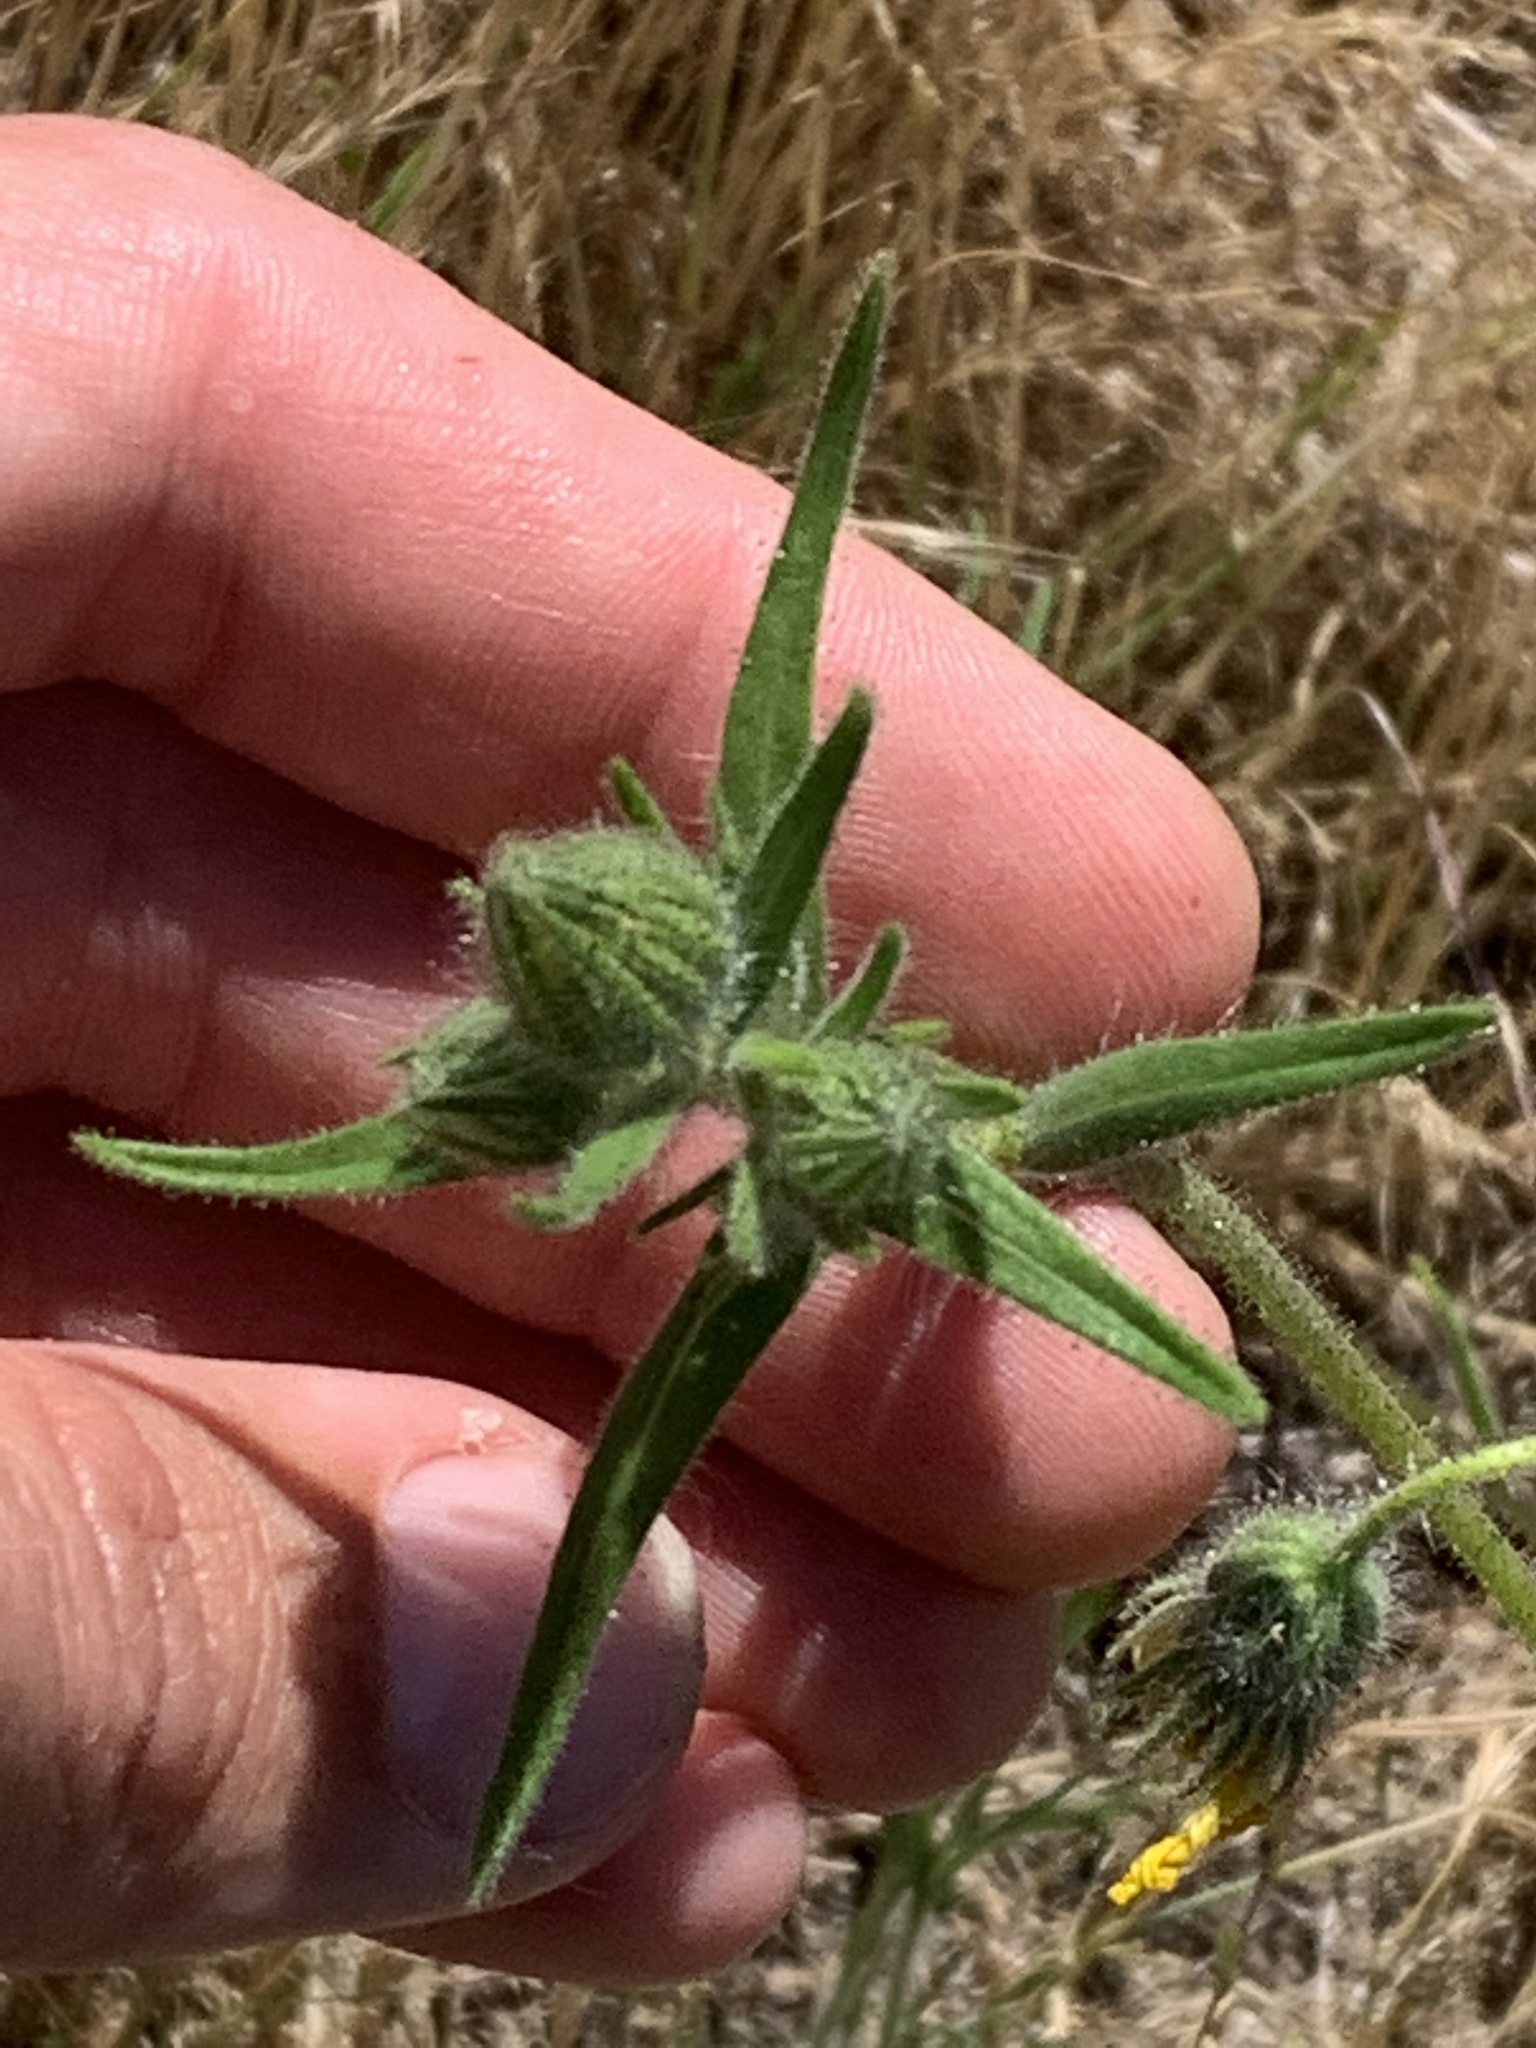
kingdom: Plantae
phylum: Tracheophyta
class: Magnoliopsida
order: Asterales
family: Asteraceae
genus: Madia
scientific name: Madia elegans
